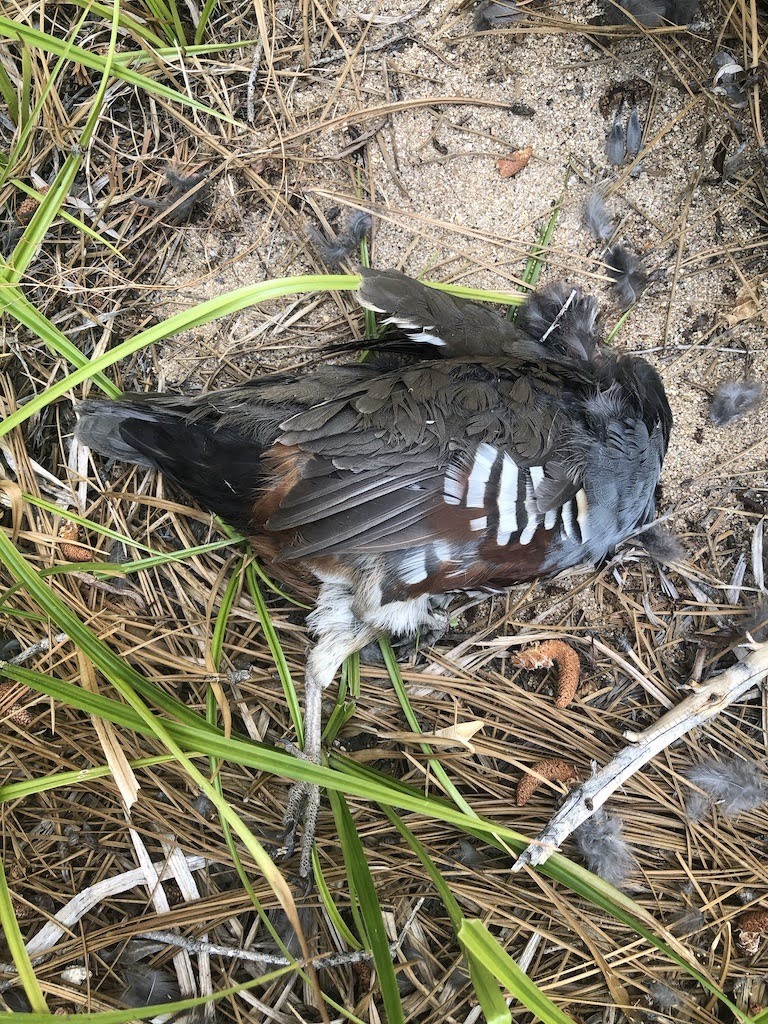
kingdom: Animalia
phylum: Chordata
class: Aves
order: Galliformes
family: Odontophoridae
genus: Oreortyx
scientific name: Oreortyx pictus
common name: Mountain quail
